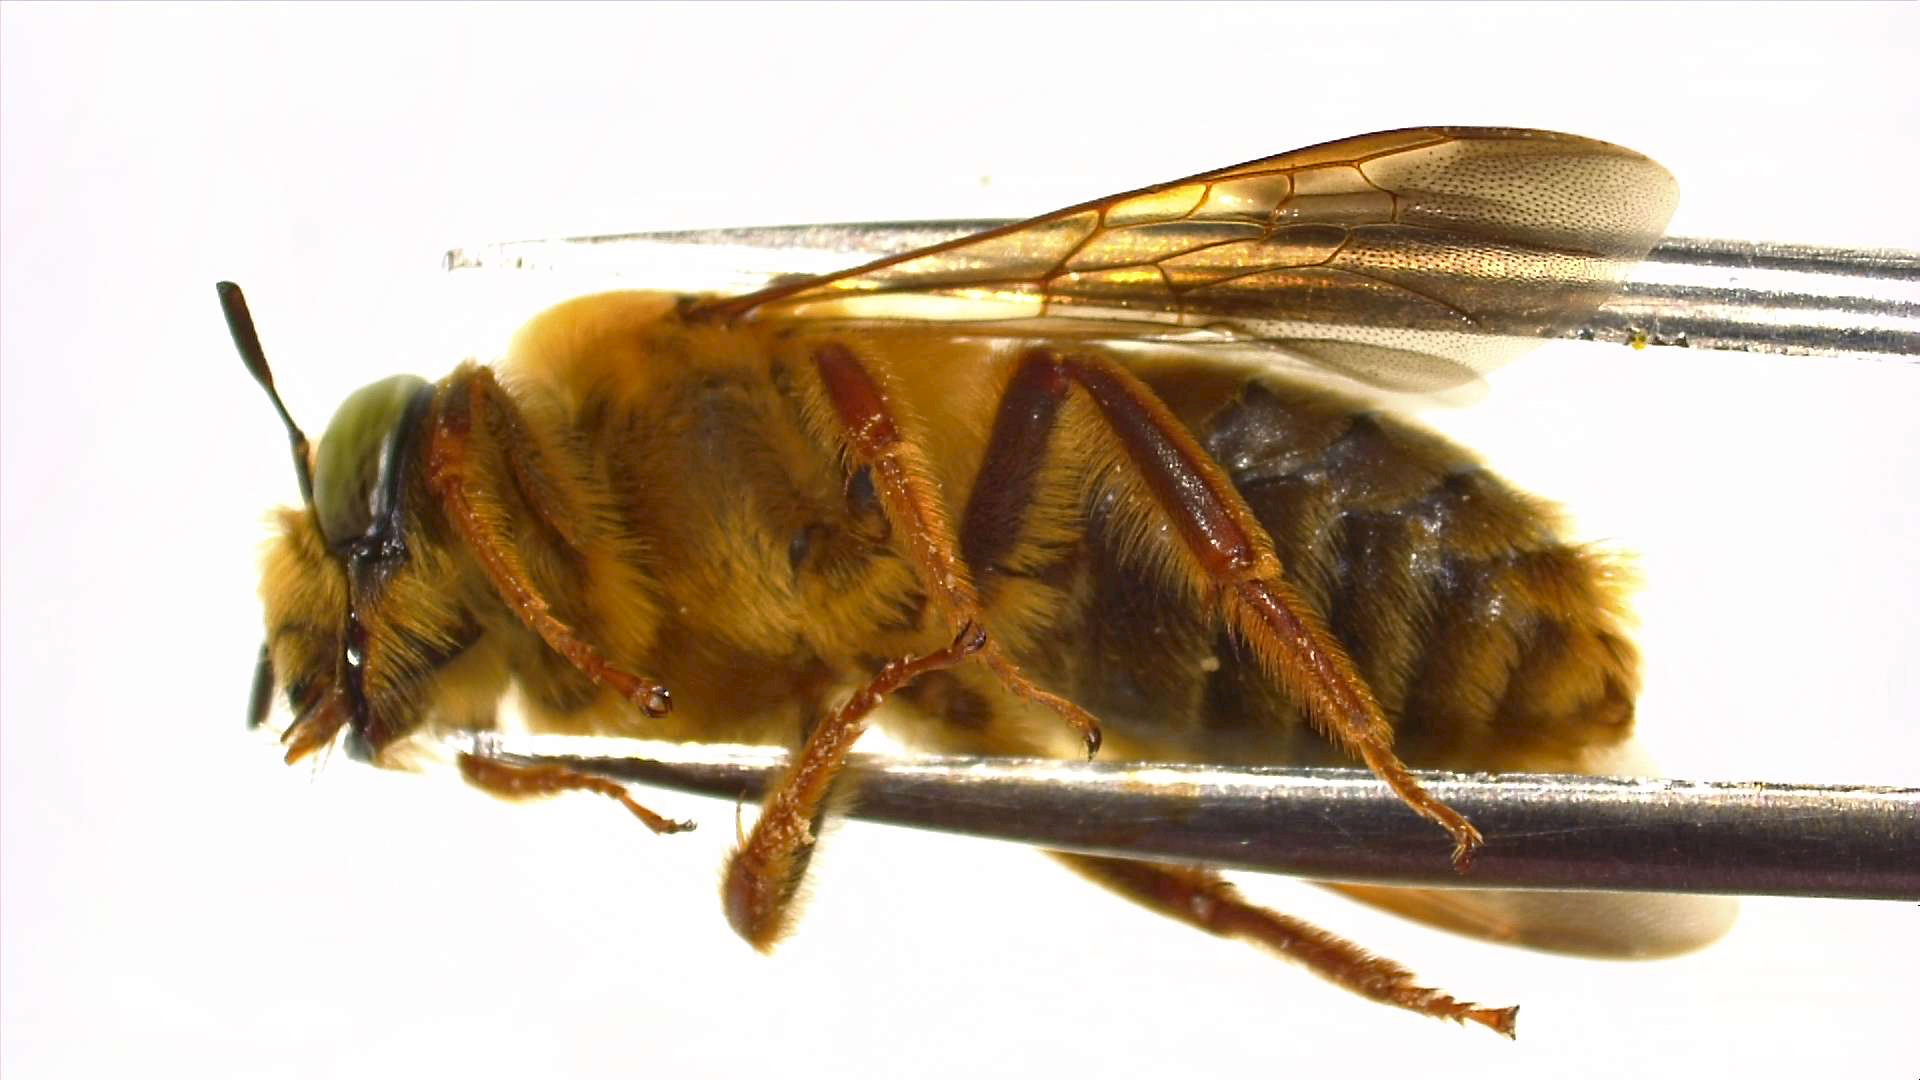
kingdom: Animalia
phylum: Arthropoda
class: Insecta
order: Hymenoptera
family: Andrenidae
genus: Protoxaea
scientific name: Protoxaea gloriosa
